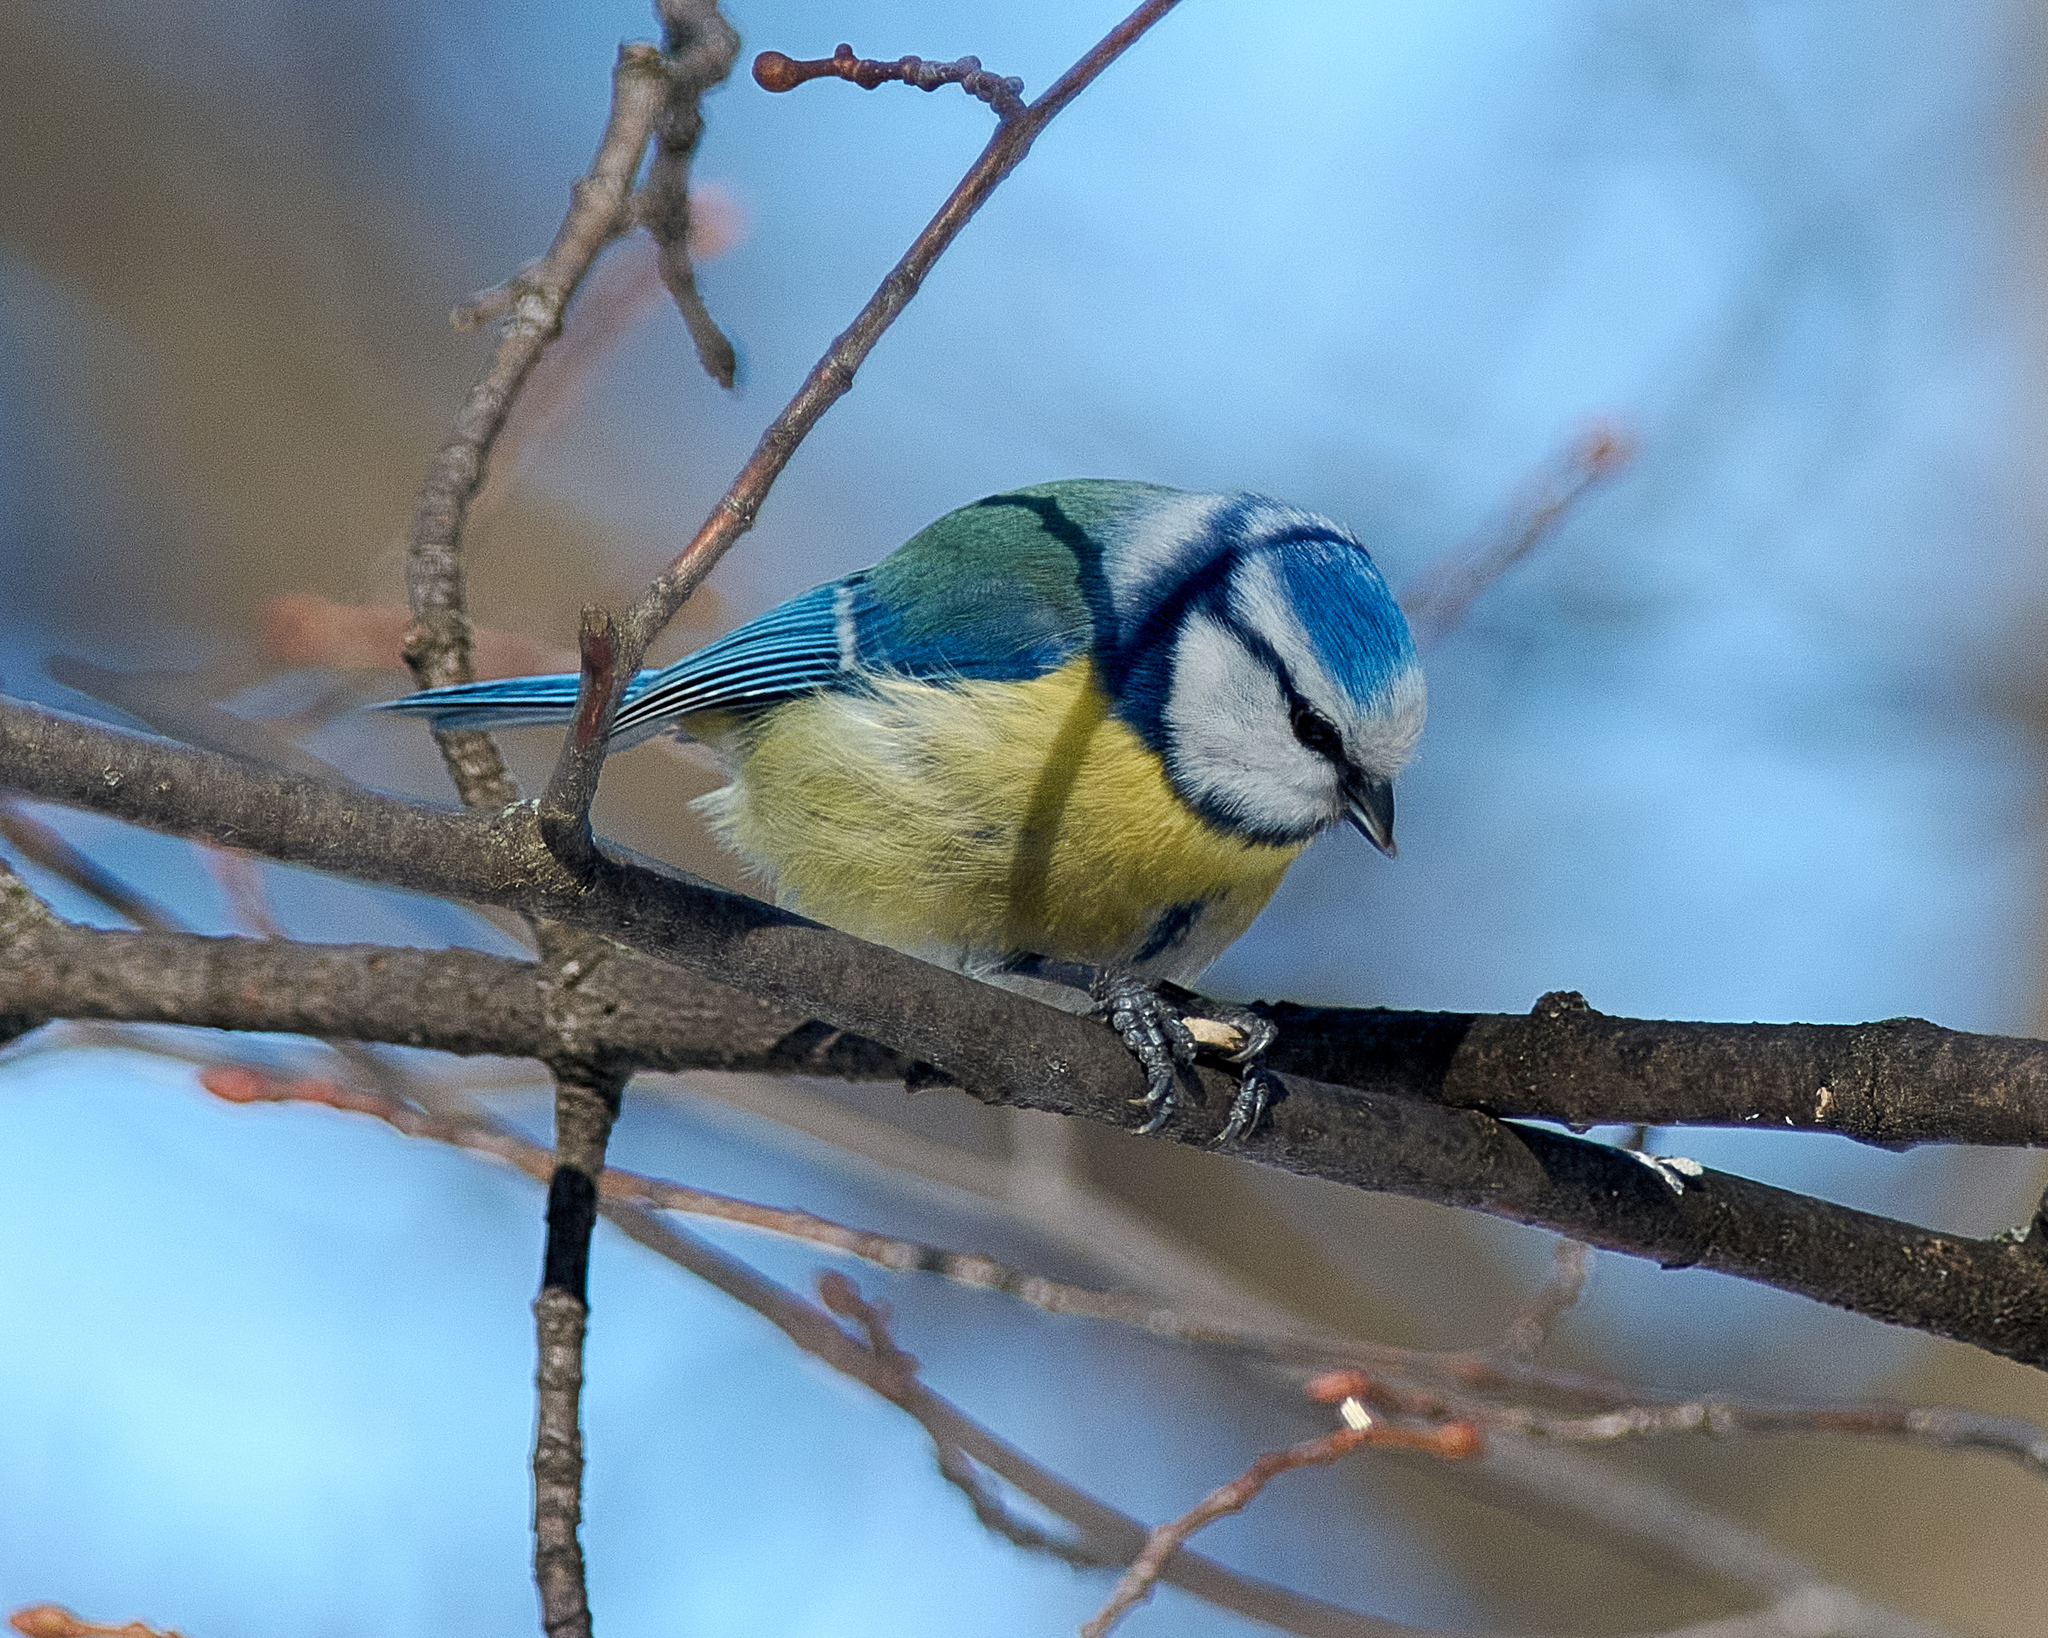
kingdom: Animalia
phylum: Chordata
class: Aves
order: Passeriformes
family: Paridae
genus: Cyanistes
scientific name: Cyanistes caeruleus
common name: Eurasian blue tit
